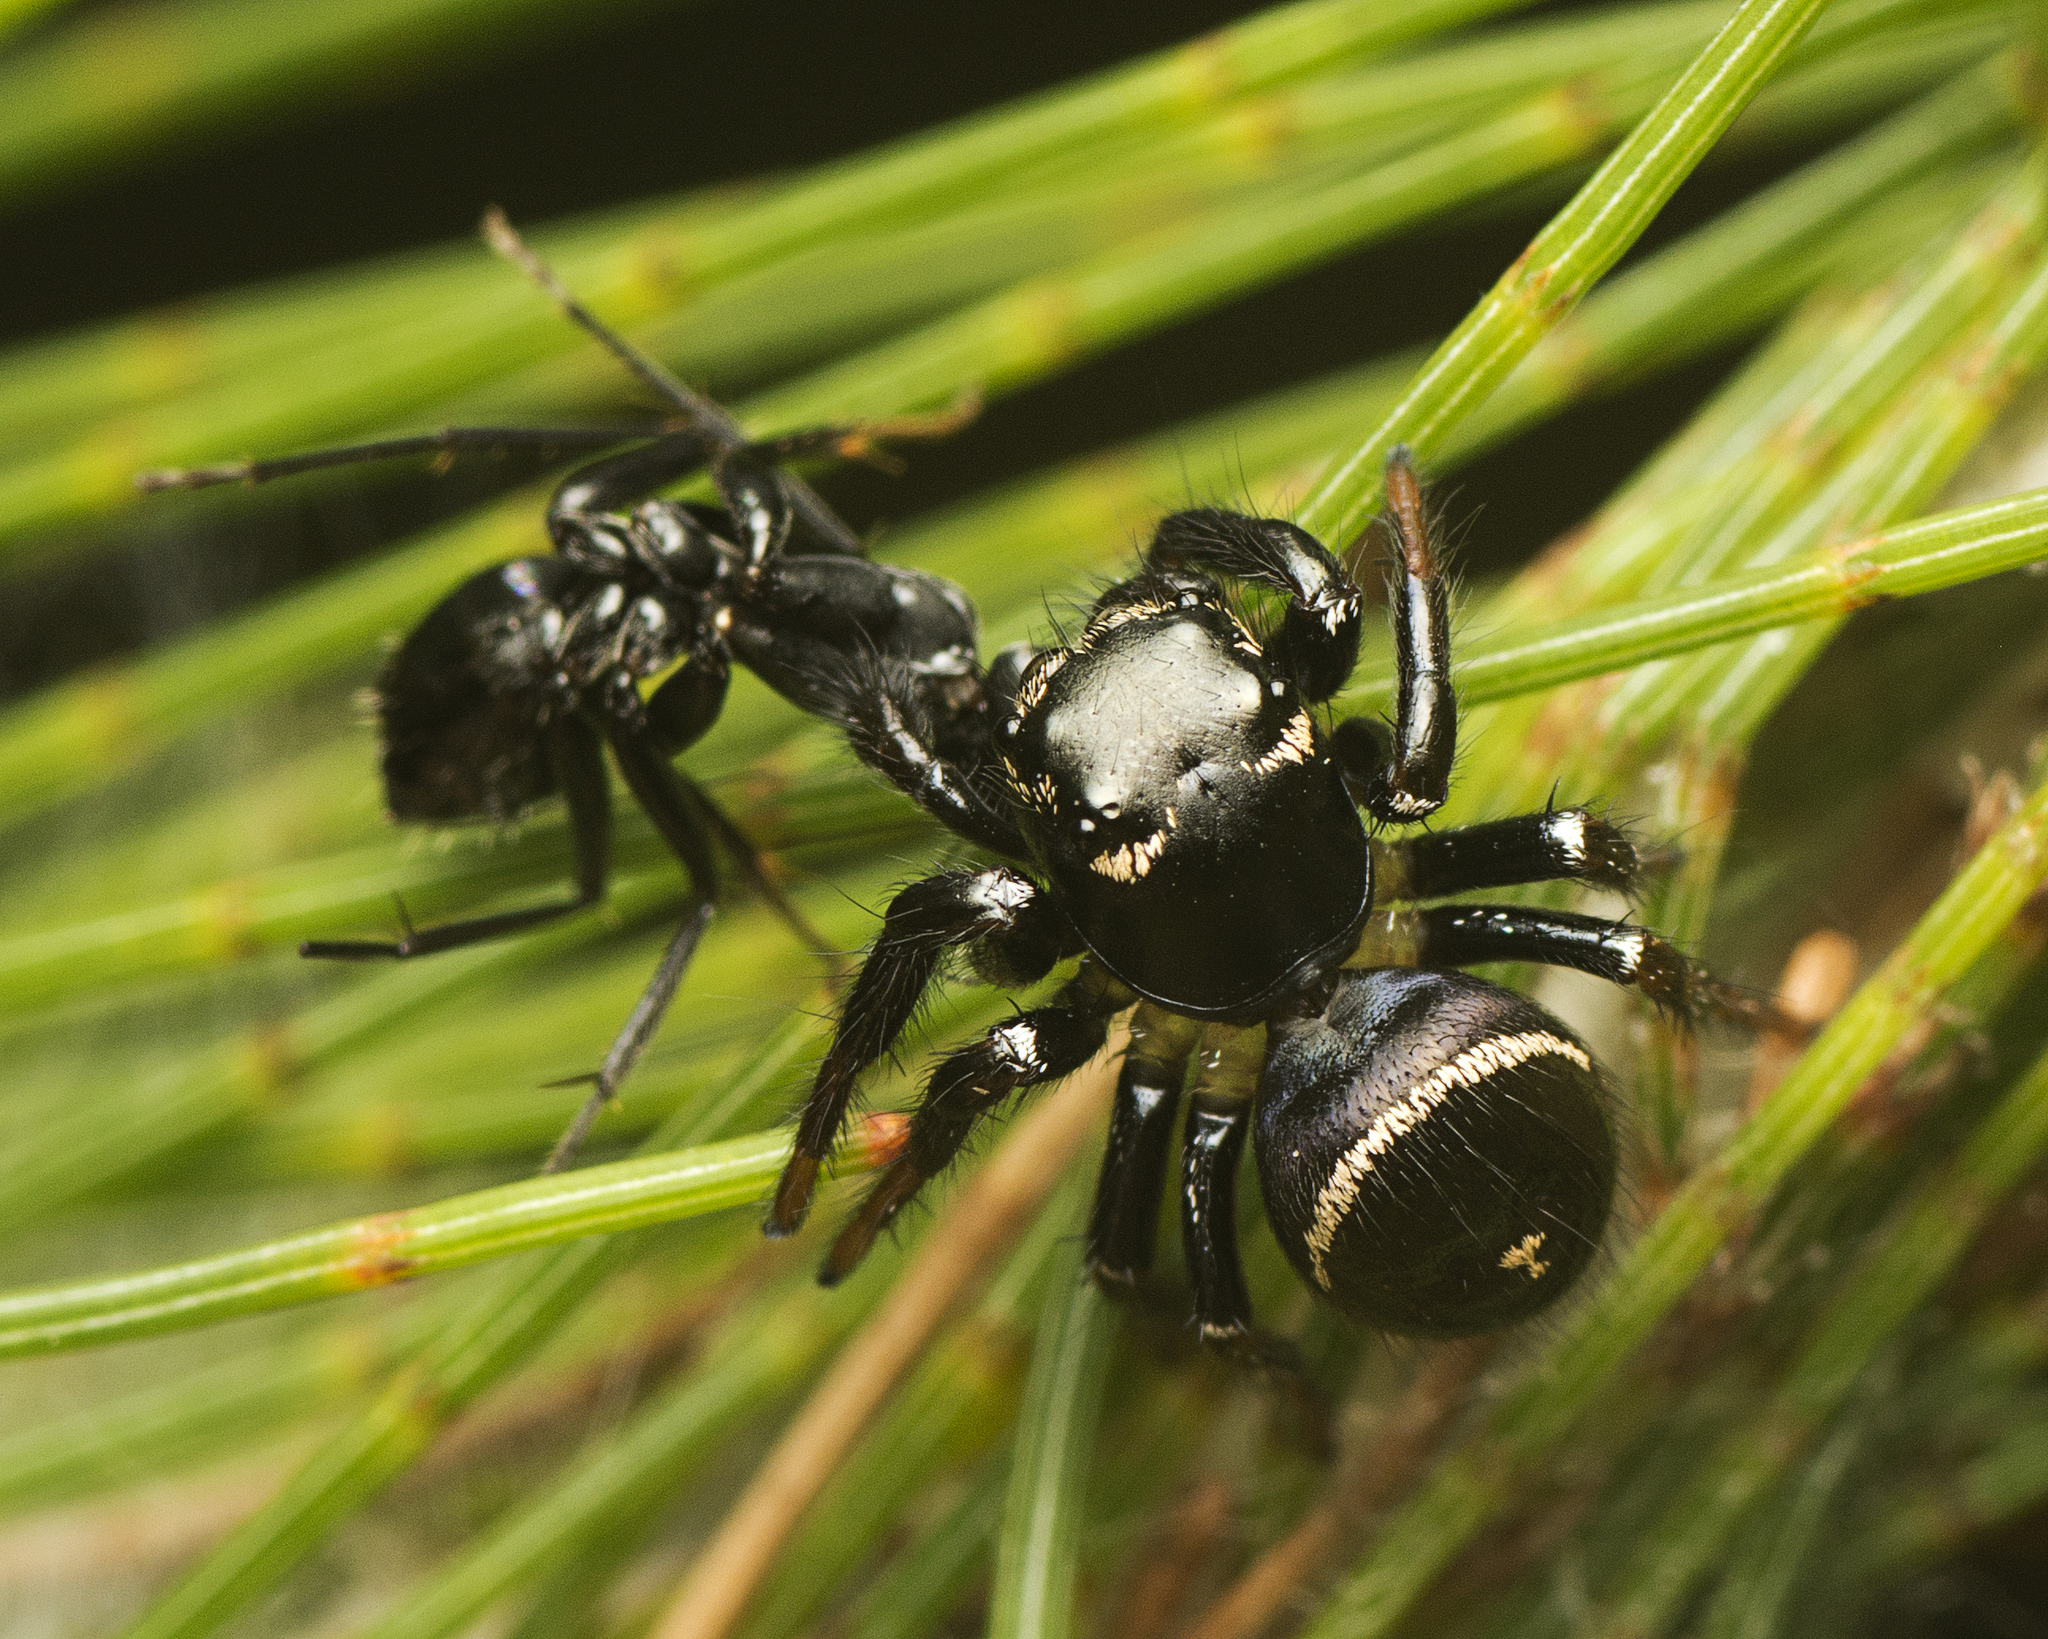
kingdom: Animalia
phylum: Arthropoda
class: Arachnida
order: Araneae
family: Salticidae
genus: Zenodorus
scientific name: Zenodorus orbiculatus
